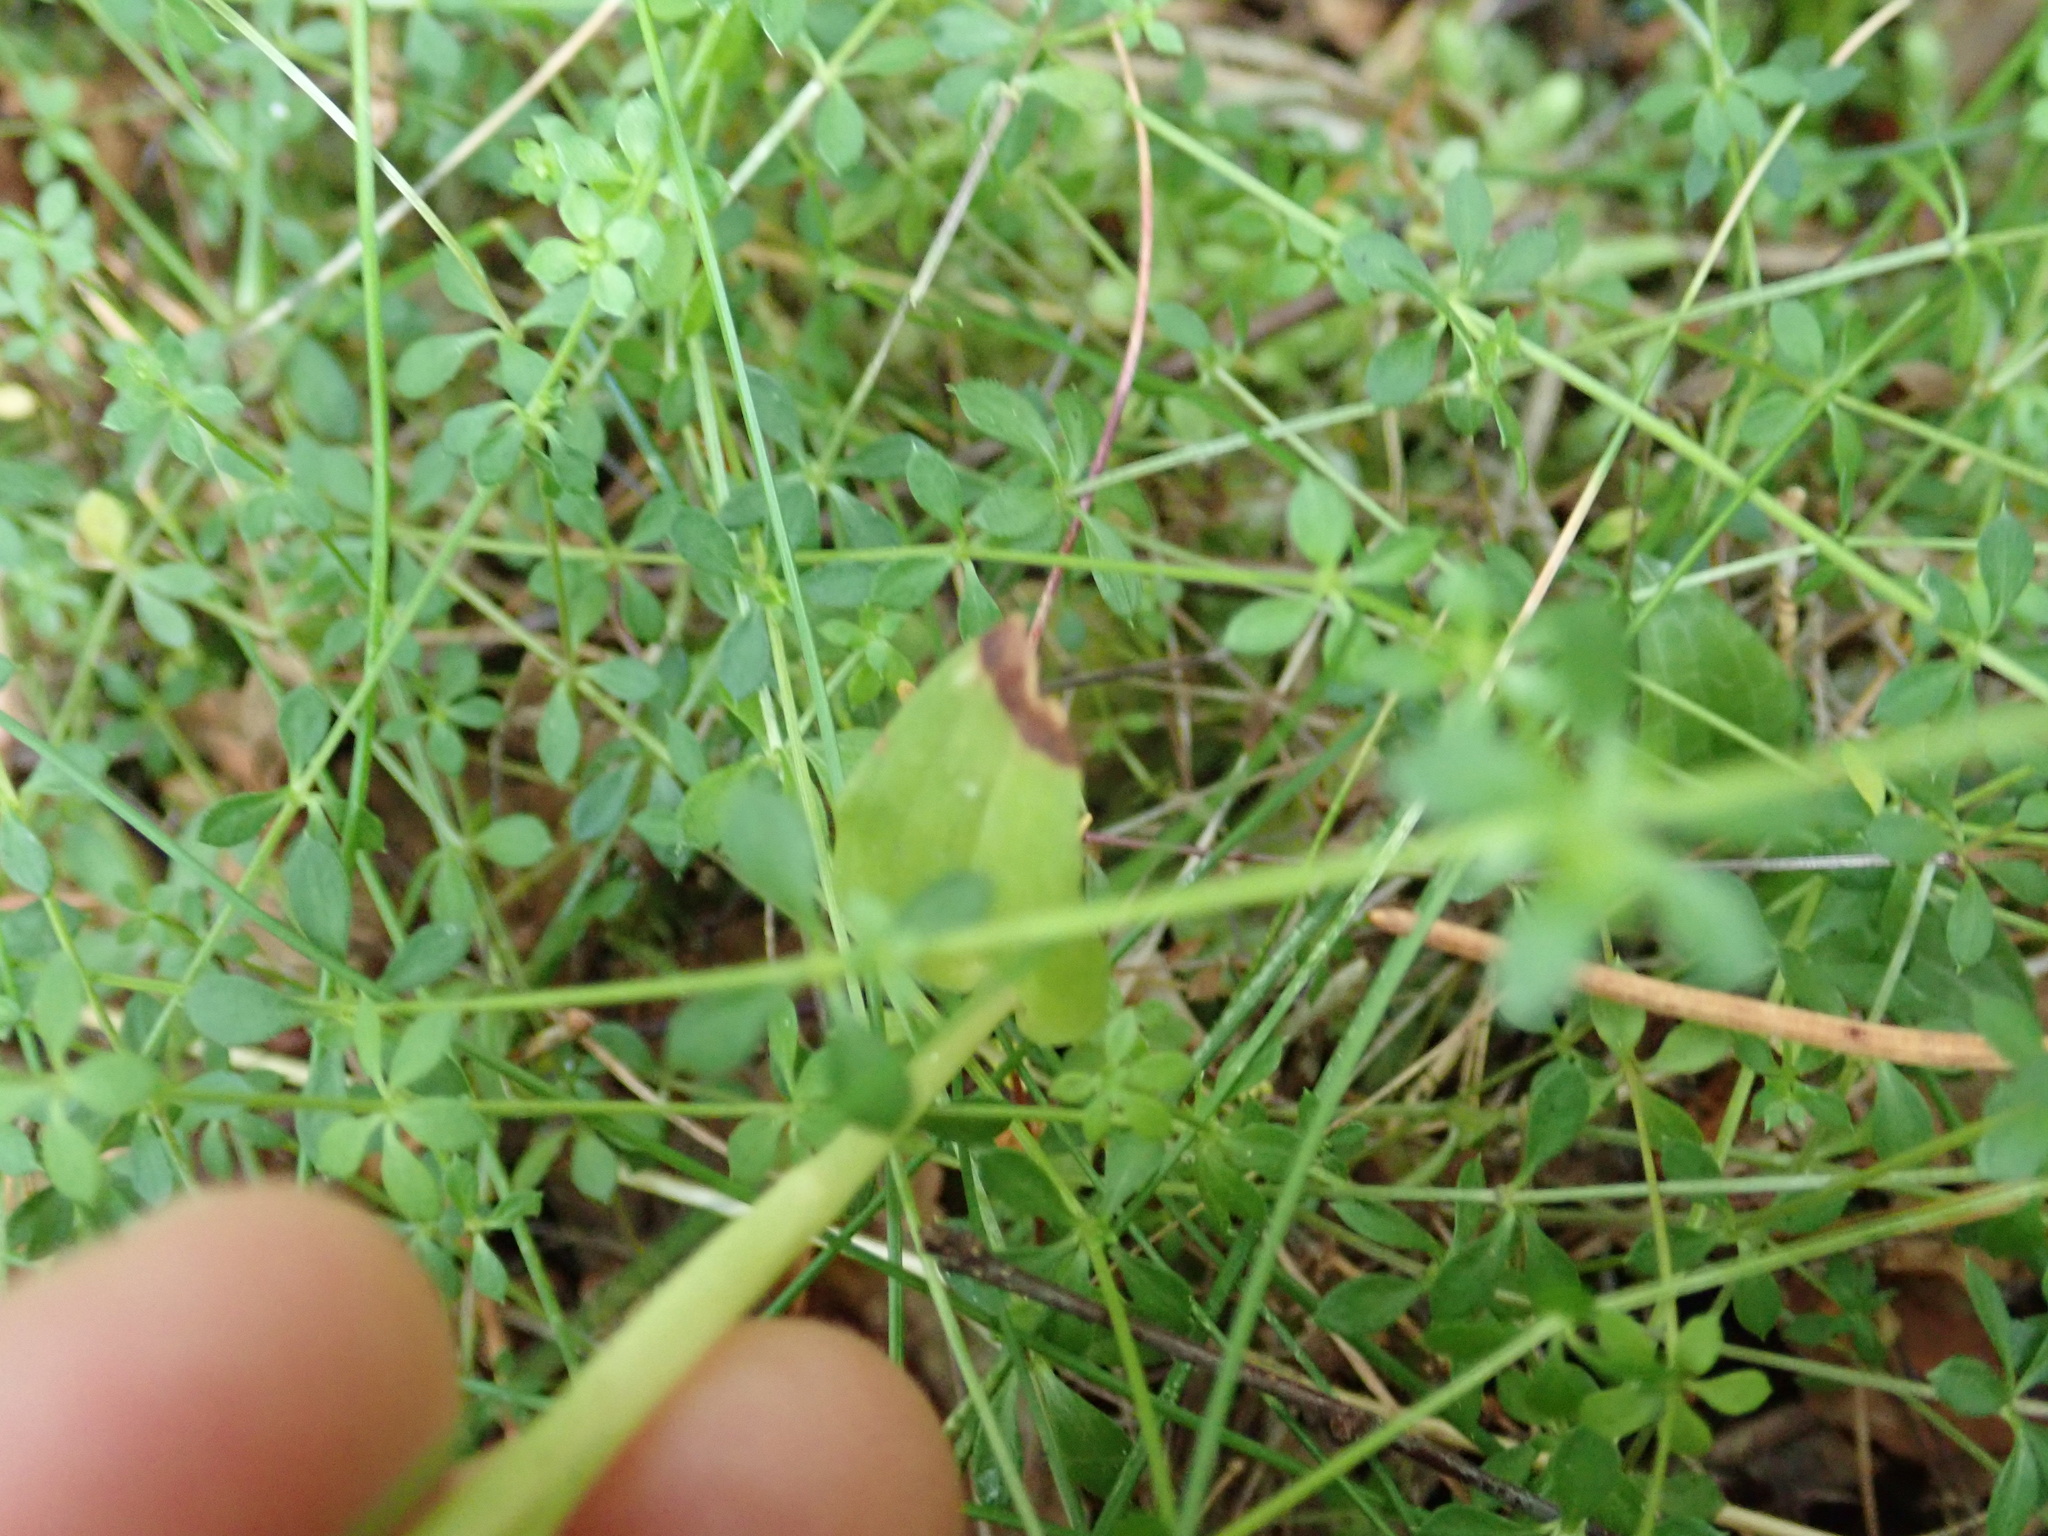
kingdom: Plantae
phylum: Tracheophyta
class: Liliopsida
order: Asparagales
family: Orchidaceae
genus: Goodyera
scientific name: Goodyera repens
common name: Creeping lady's-tresses
